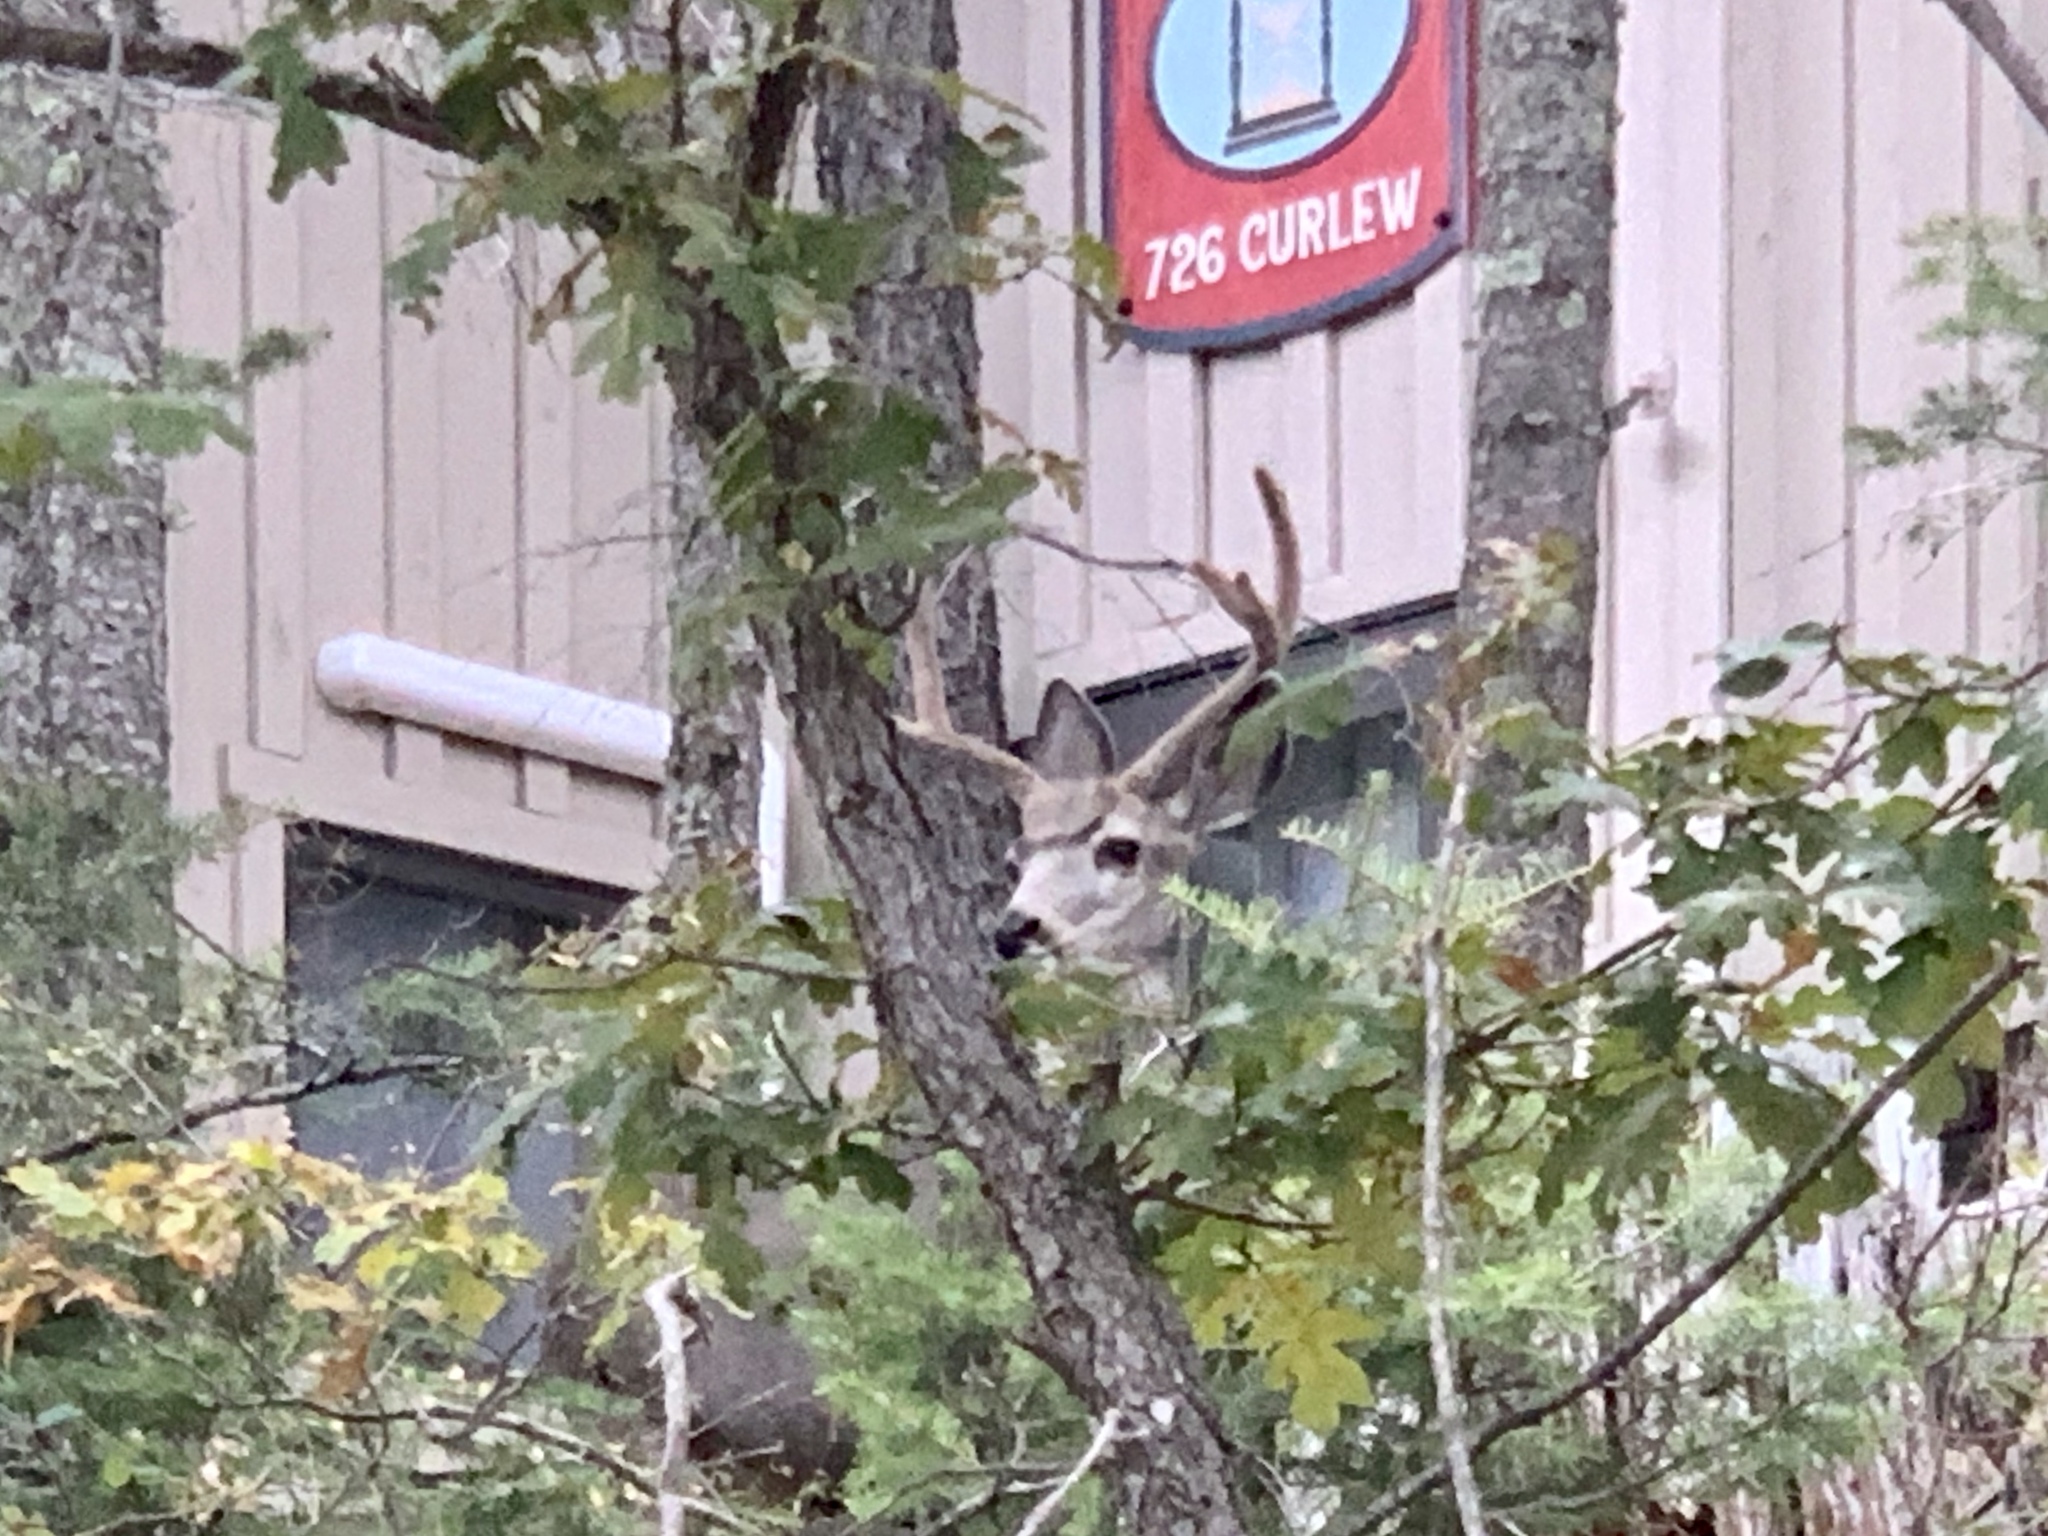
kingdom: Animalia
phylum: Chordata
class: Mammalia
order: Artiodactyla
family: Cervidae
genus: Odocoileus
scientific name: Odocoileus hemionus
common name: Mule deer
